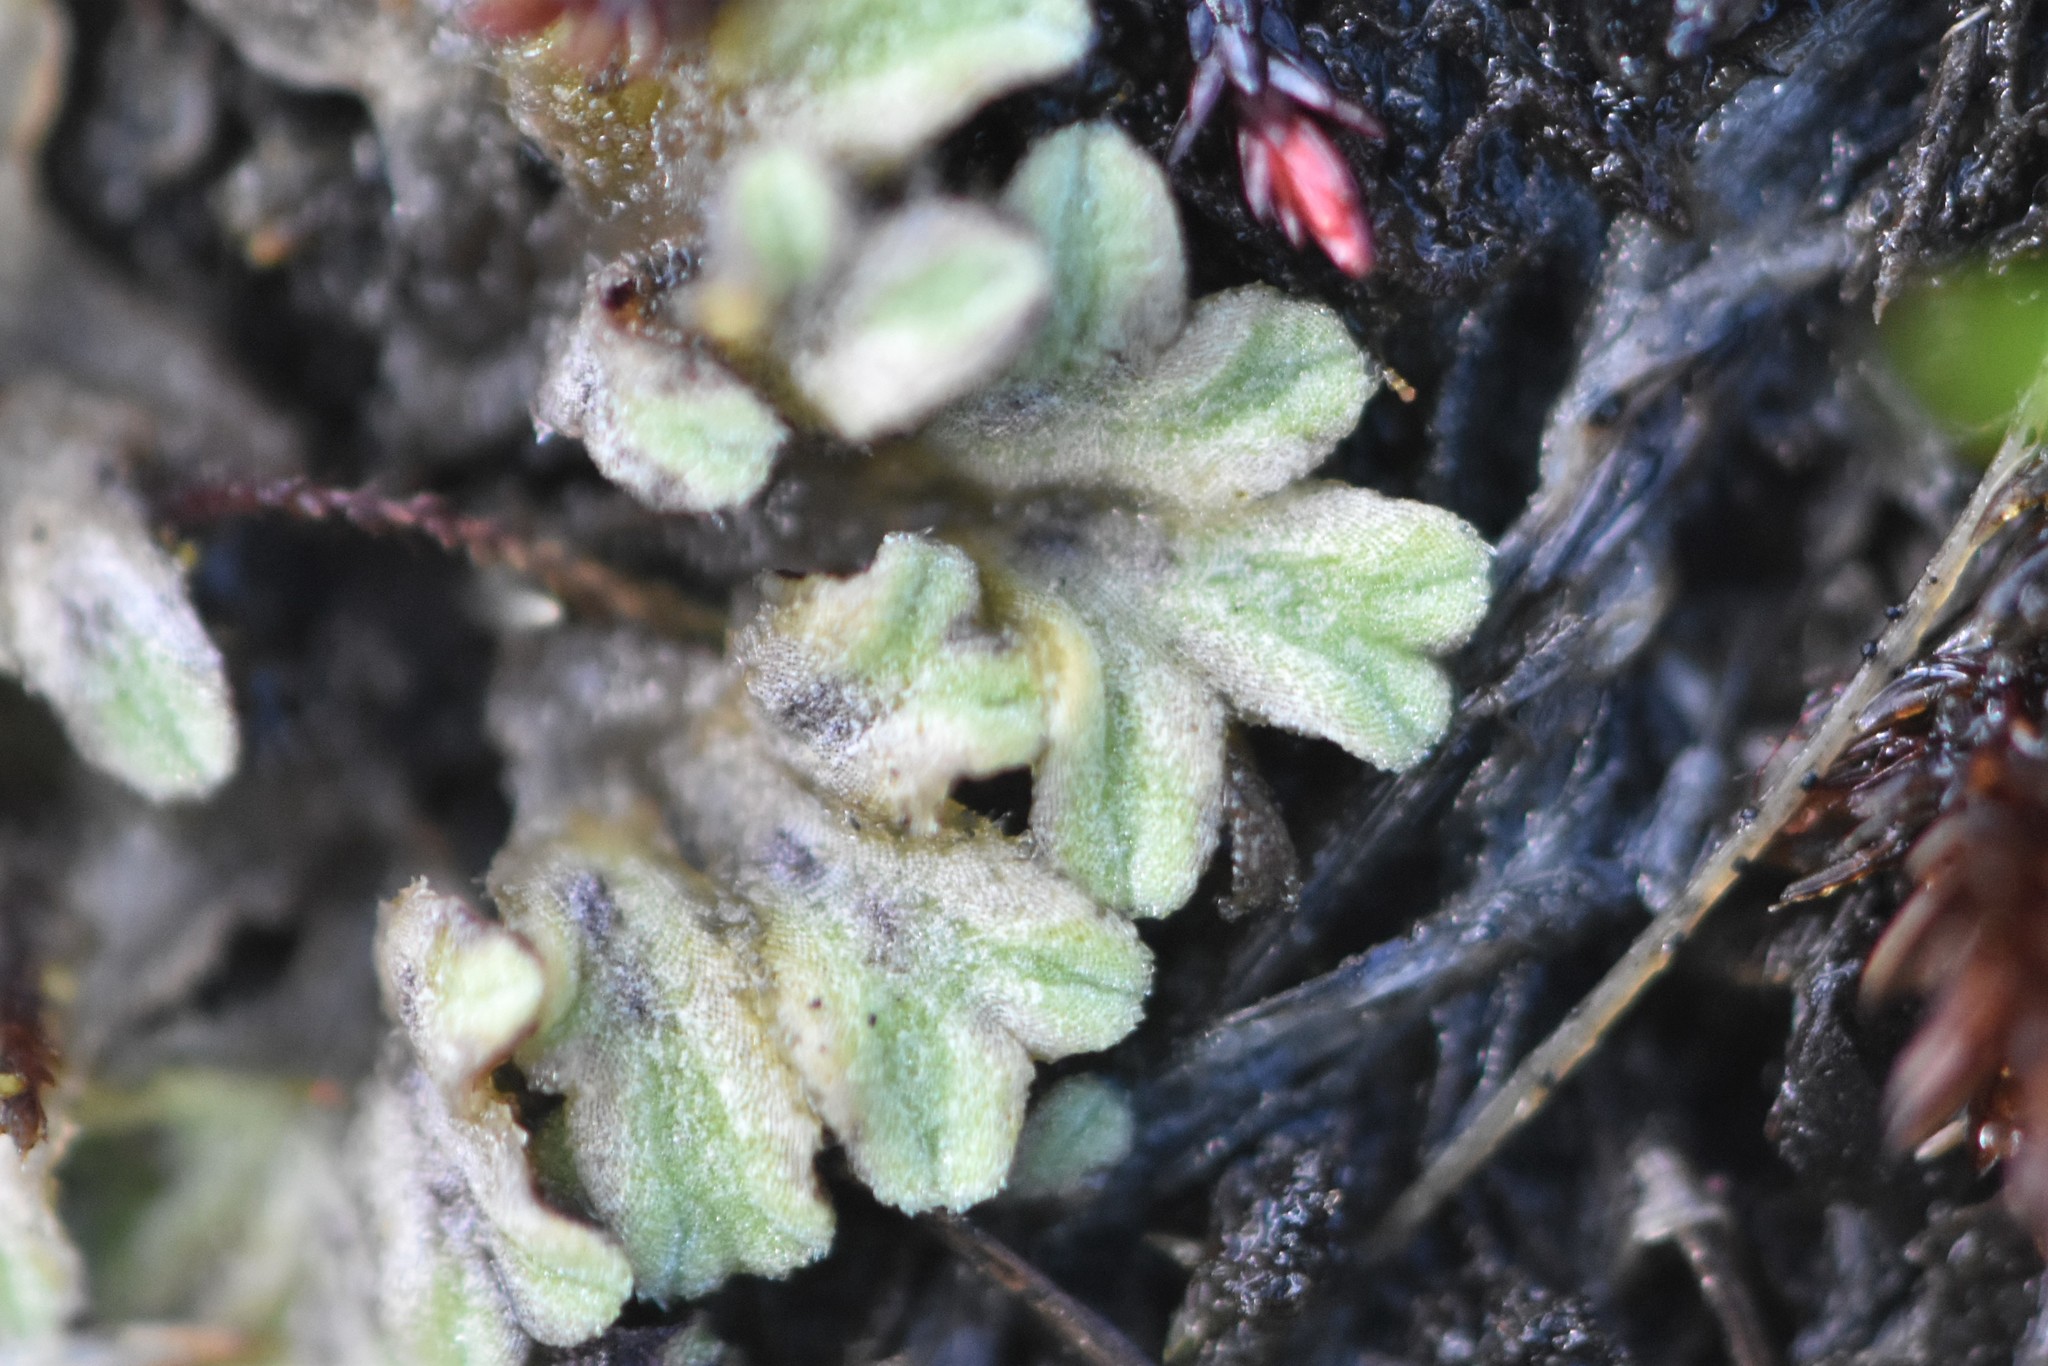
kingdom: Plantae
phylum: Marchantiophyta
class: Marchantiopsida
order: Marchantiales
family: Ricciaceae
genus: Riccia
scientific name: Riccia beyrichiana
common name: Purple crystalwort
